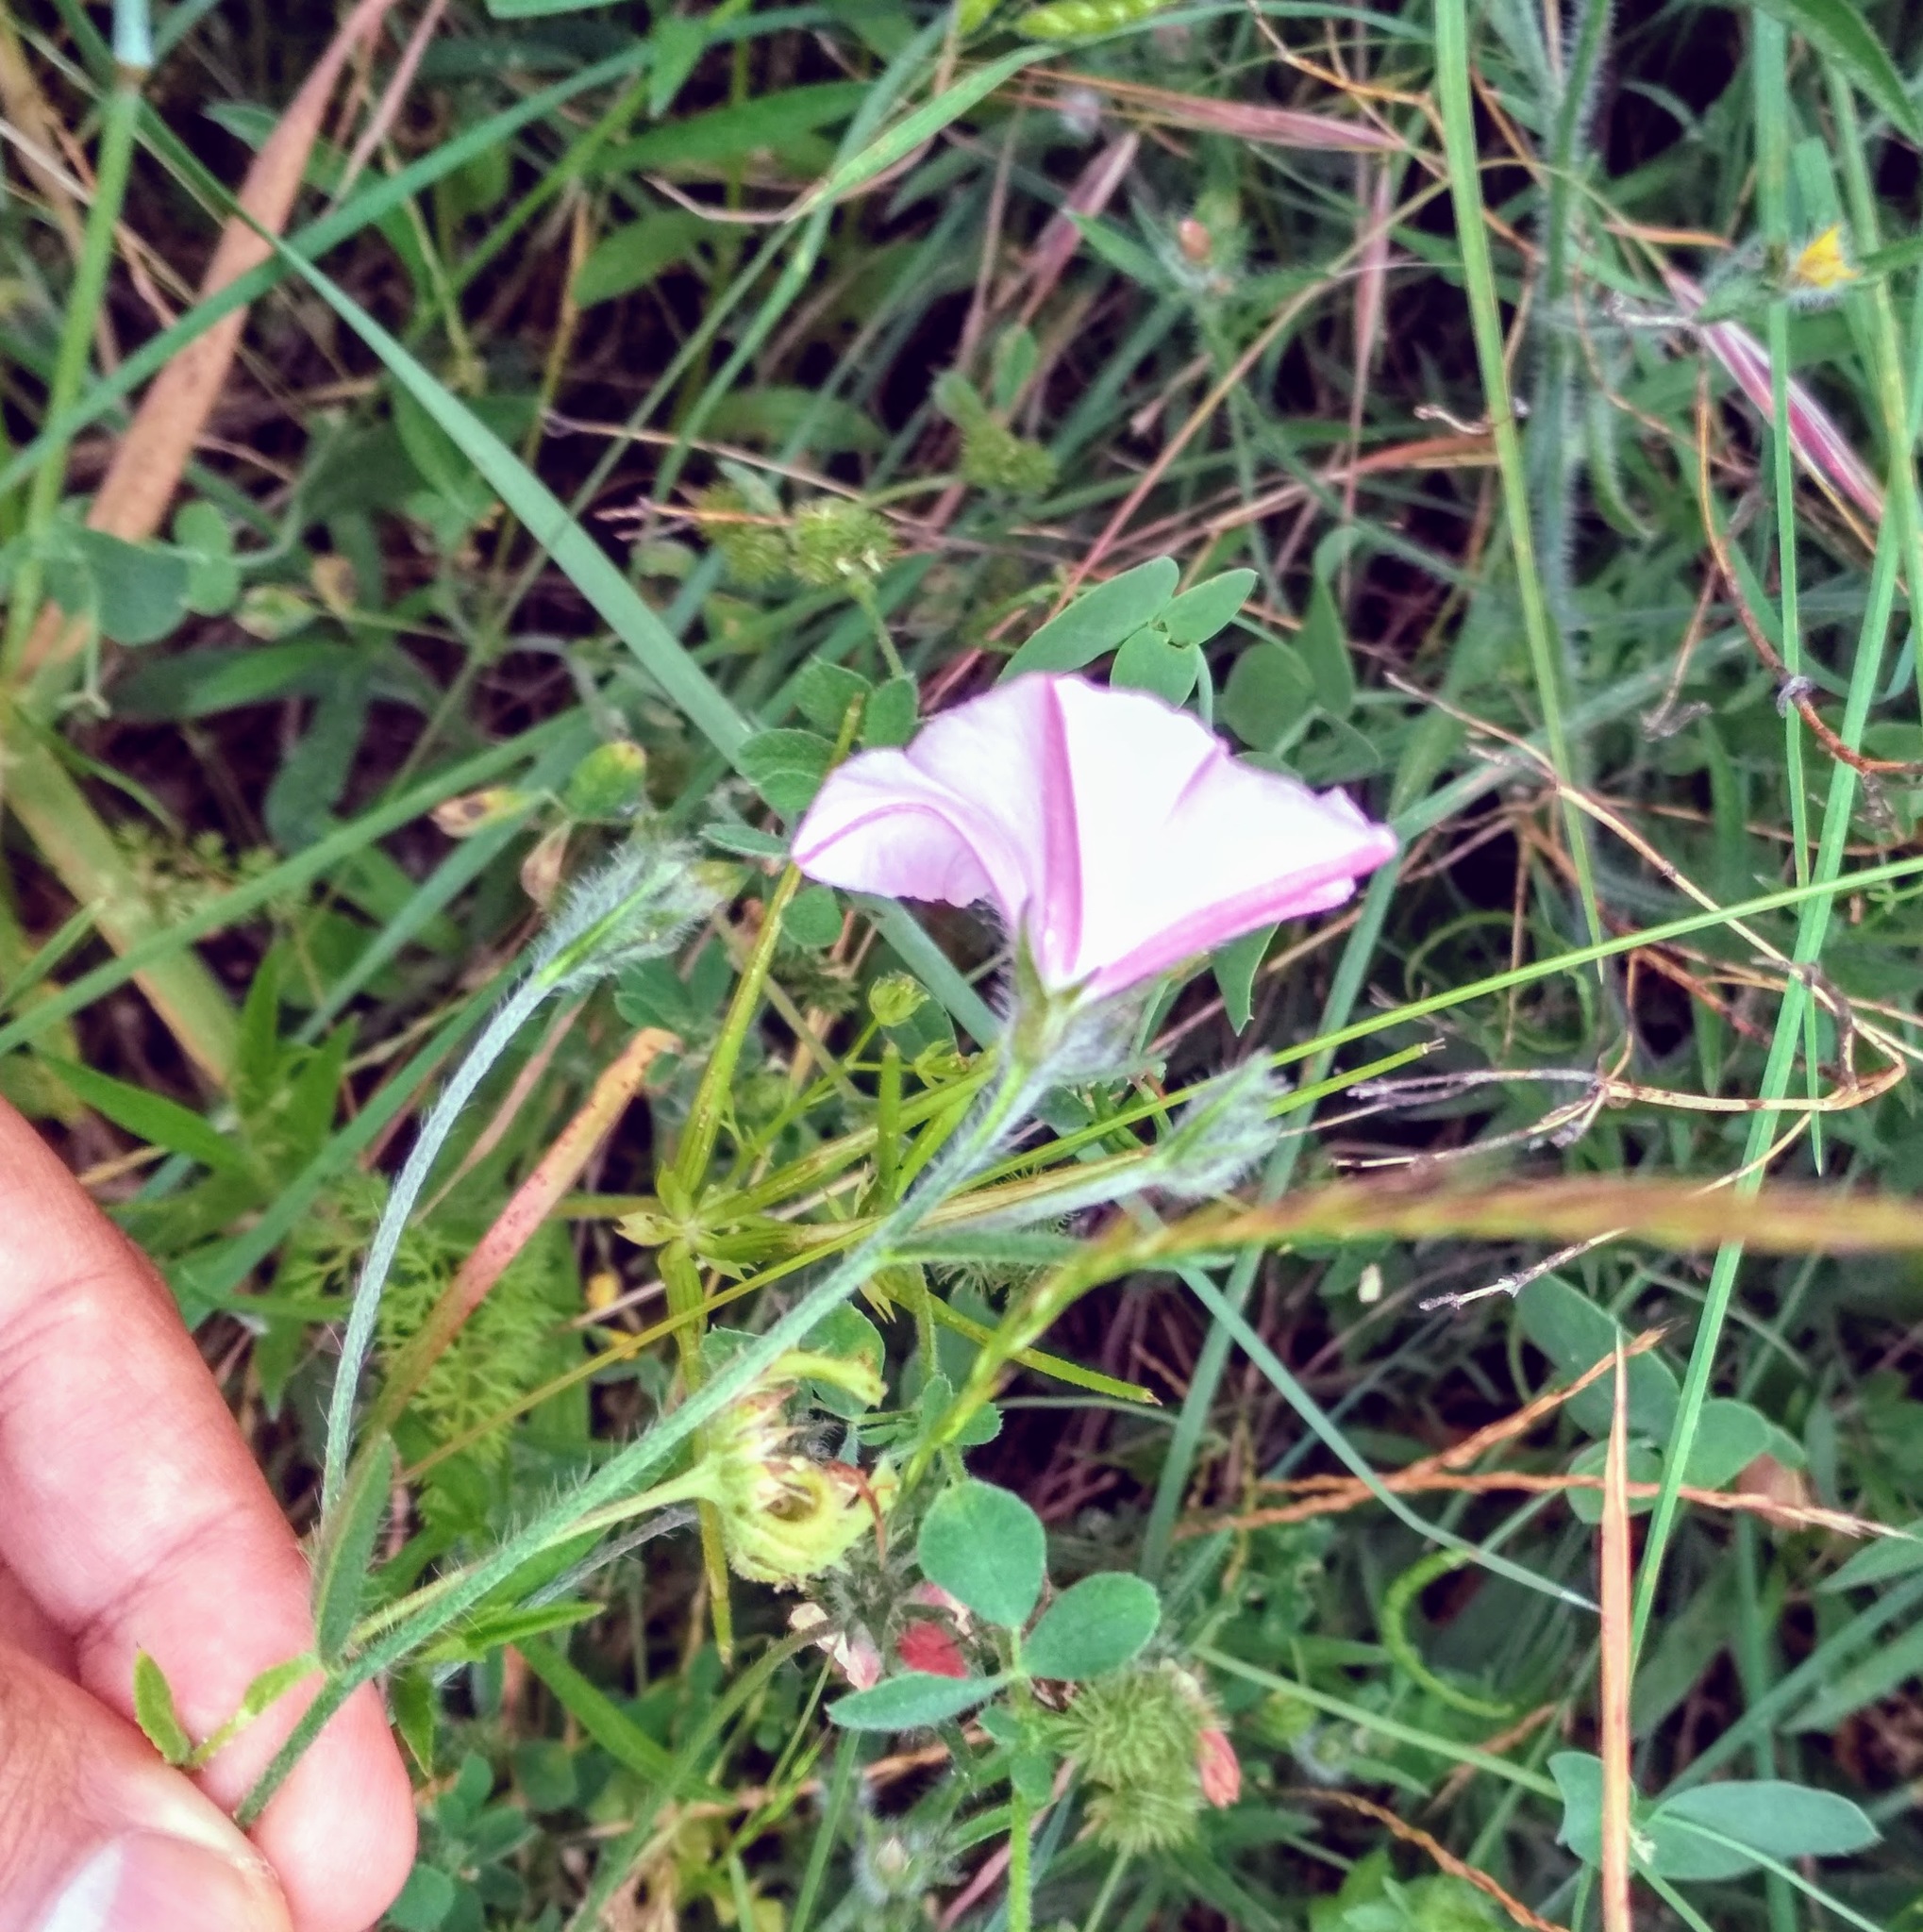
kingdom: Plantae
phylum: Tracheophyta
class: Magnoliopsida
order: Solanales
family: Convolvulaceae
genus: Convolvulus
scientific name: Convolvulus cantabrica
